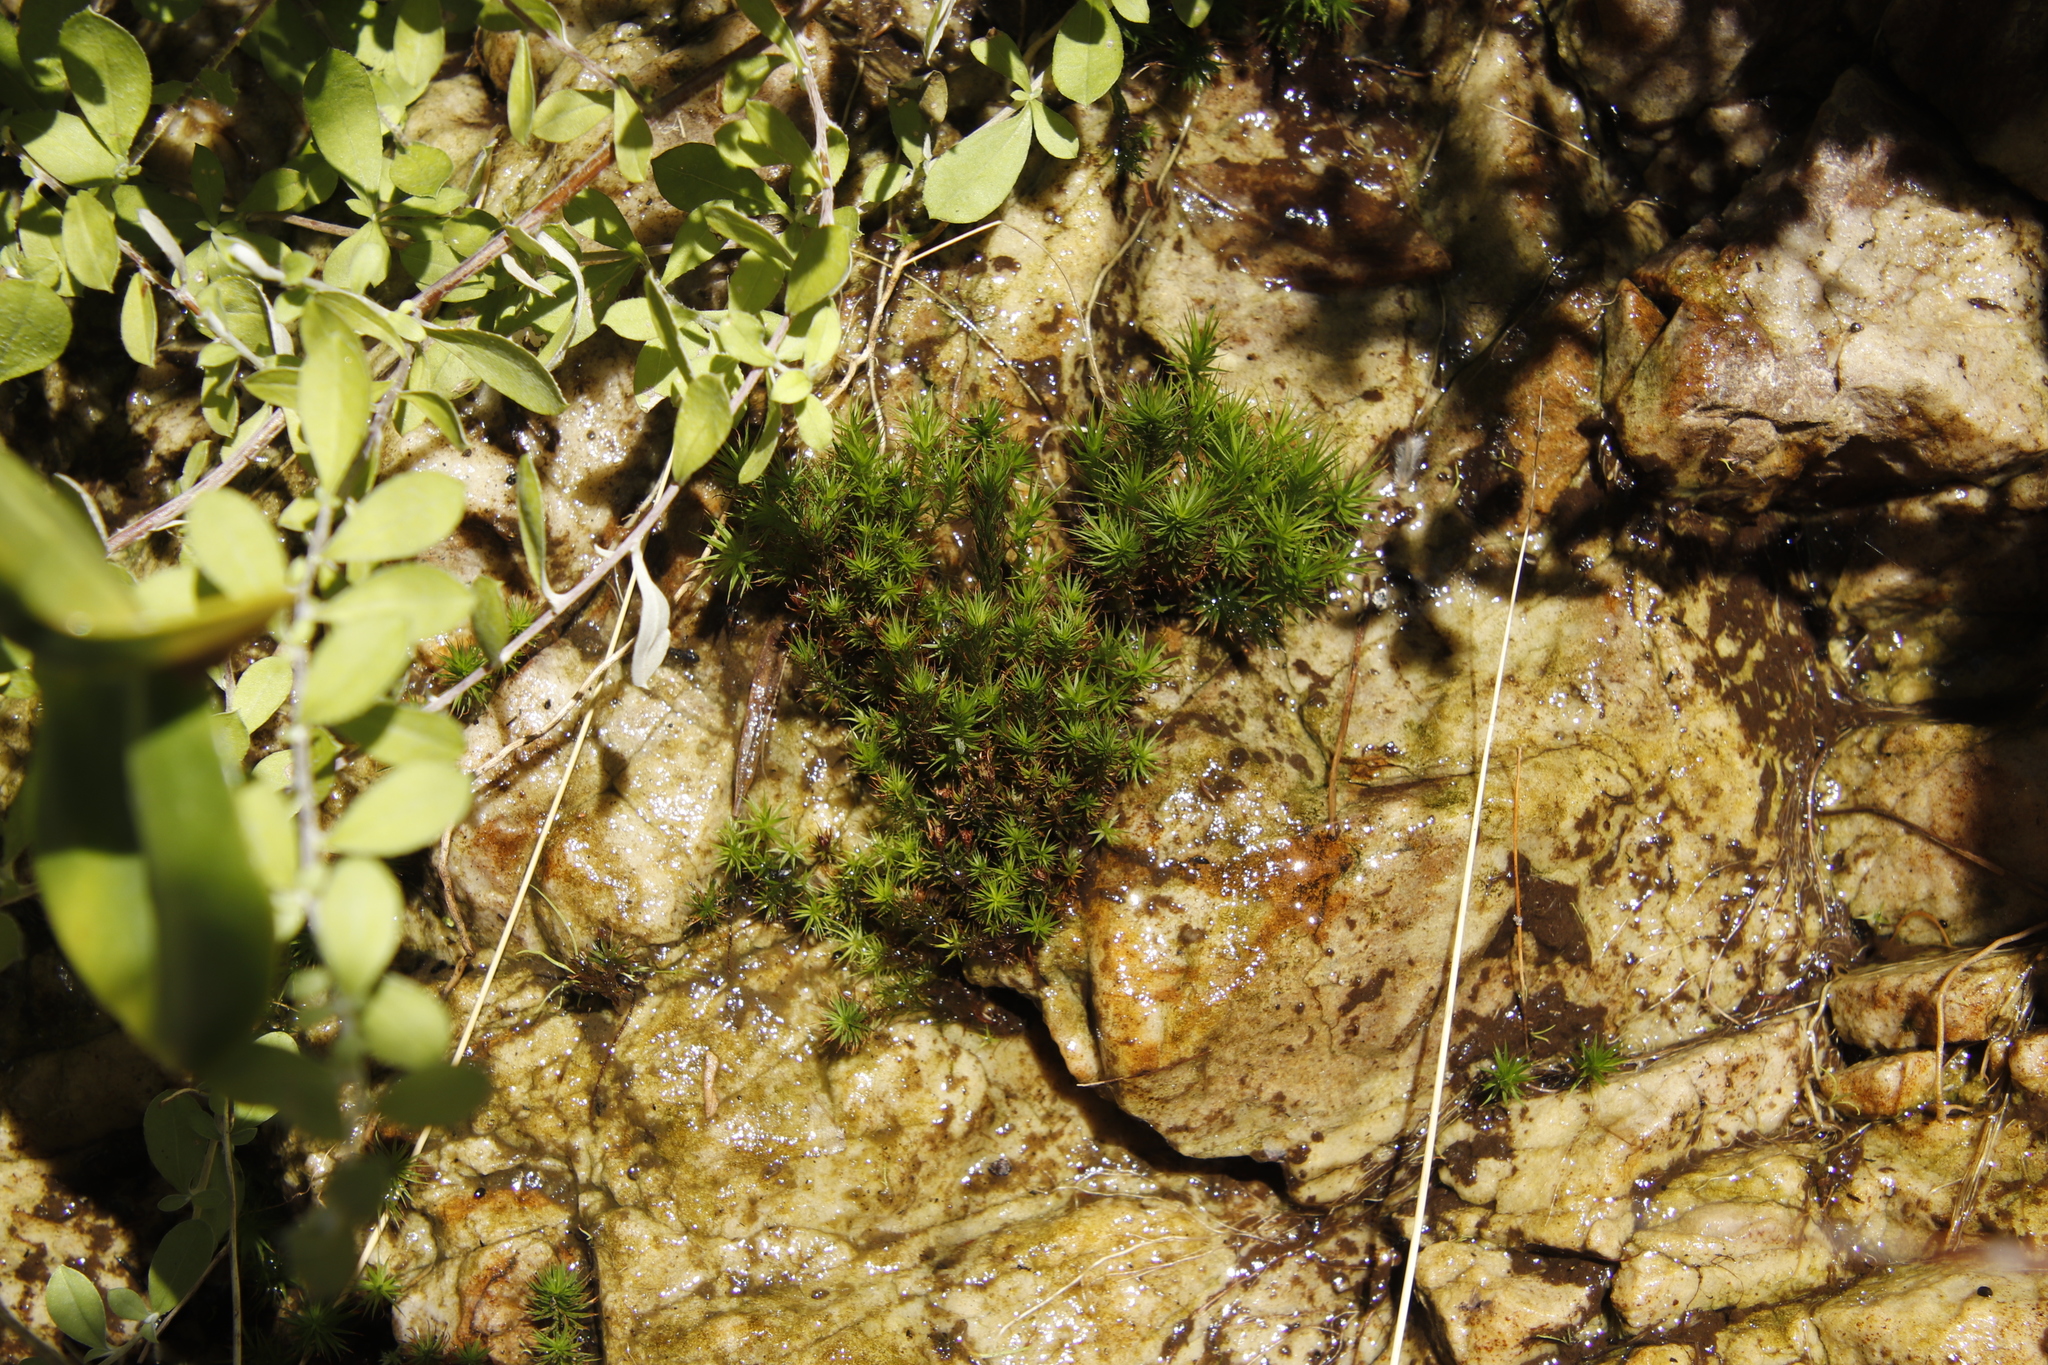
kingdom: Plantae
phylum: Bryophyta
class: Polytrichopsida
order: Polytrichales
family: Polytrichaceae
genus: Polytrichum
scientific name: Polytrichum juniperinum
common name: Juniper haircap moss
